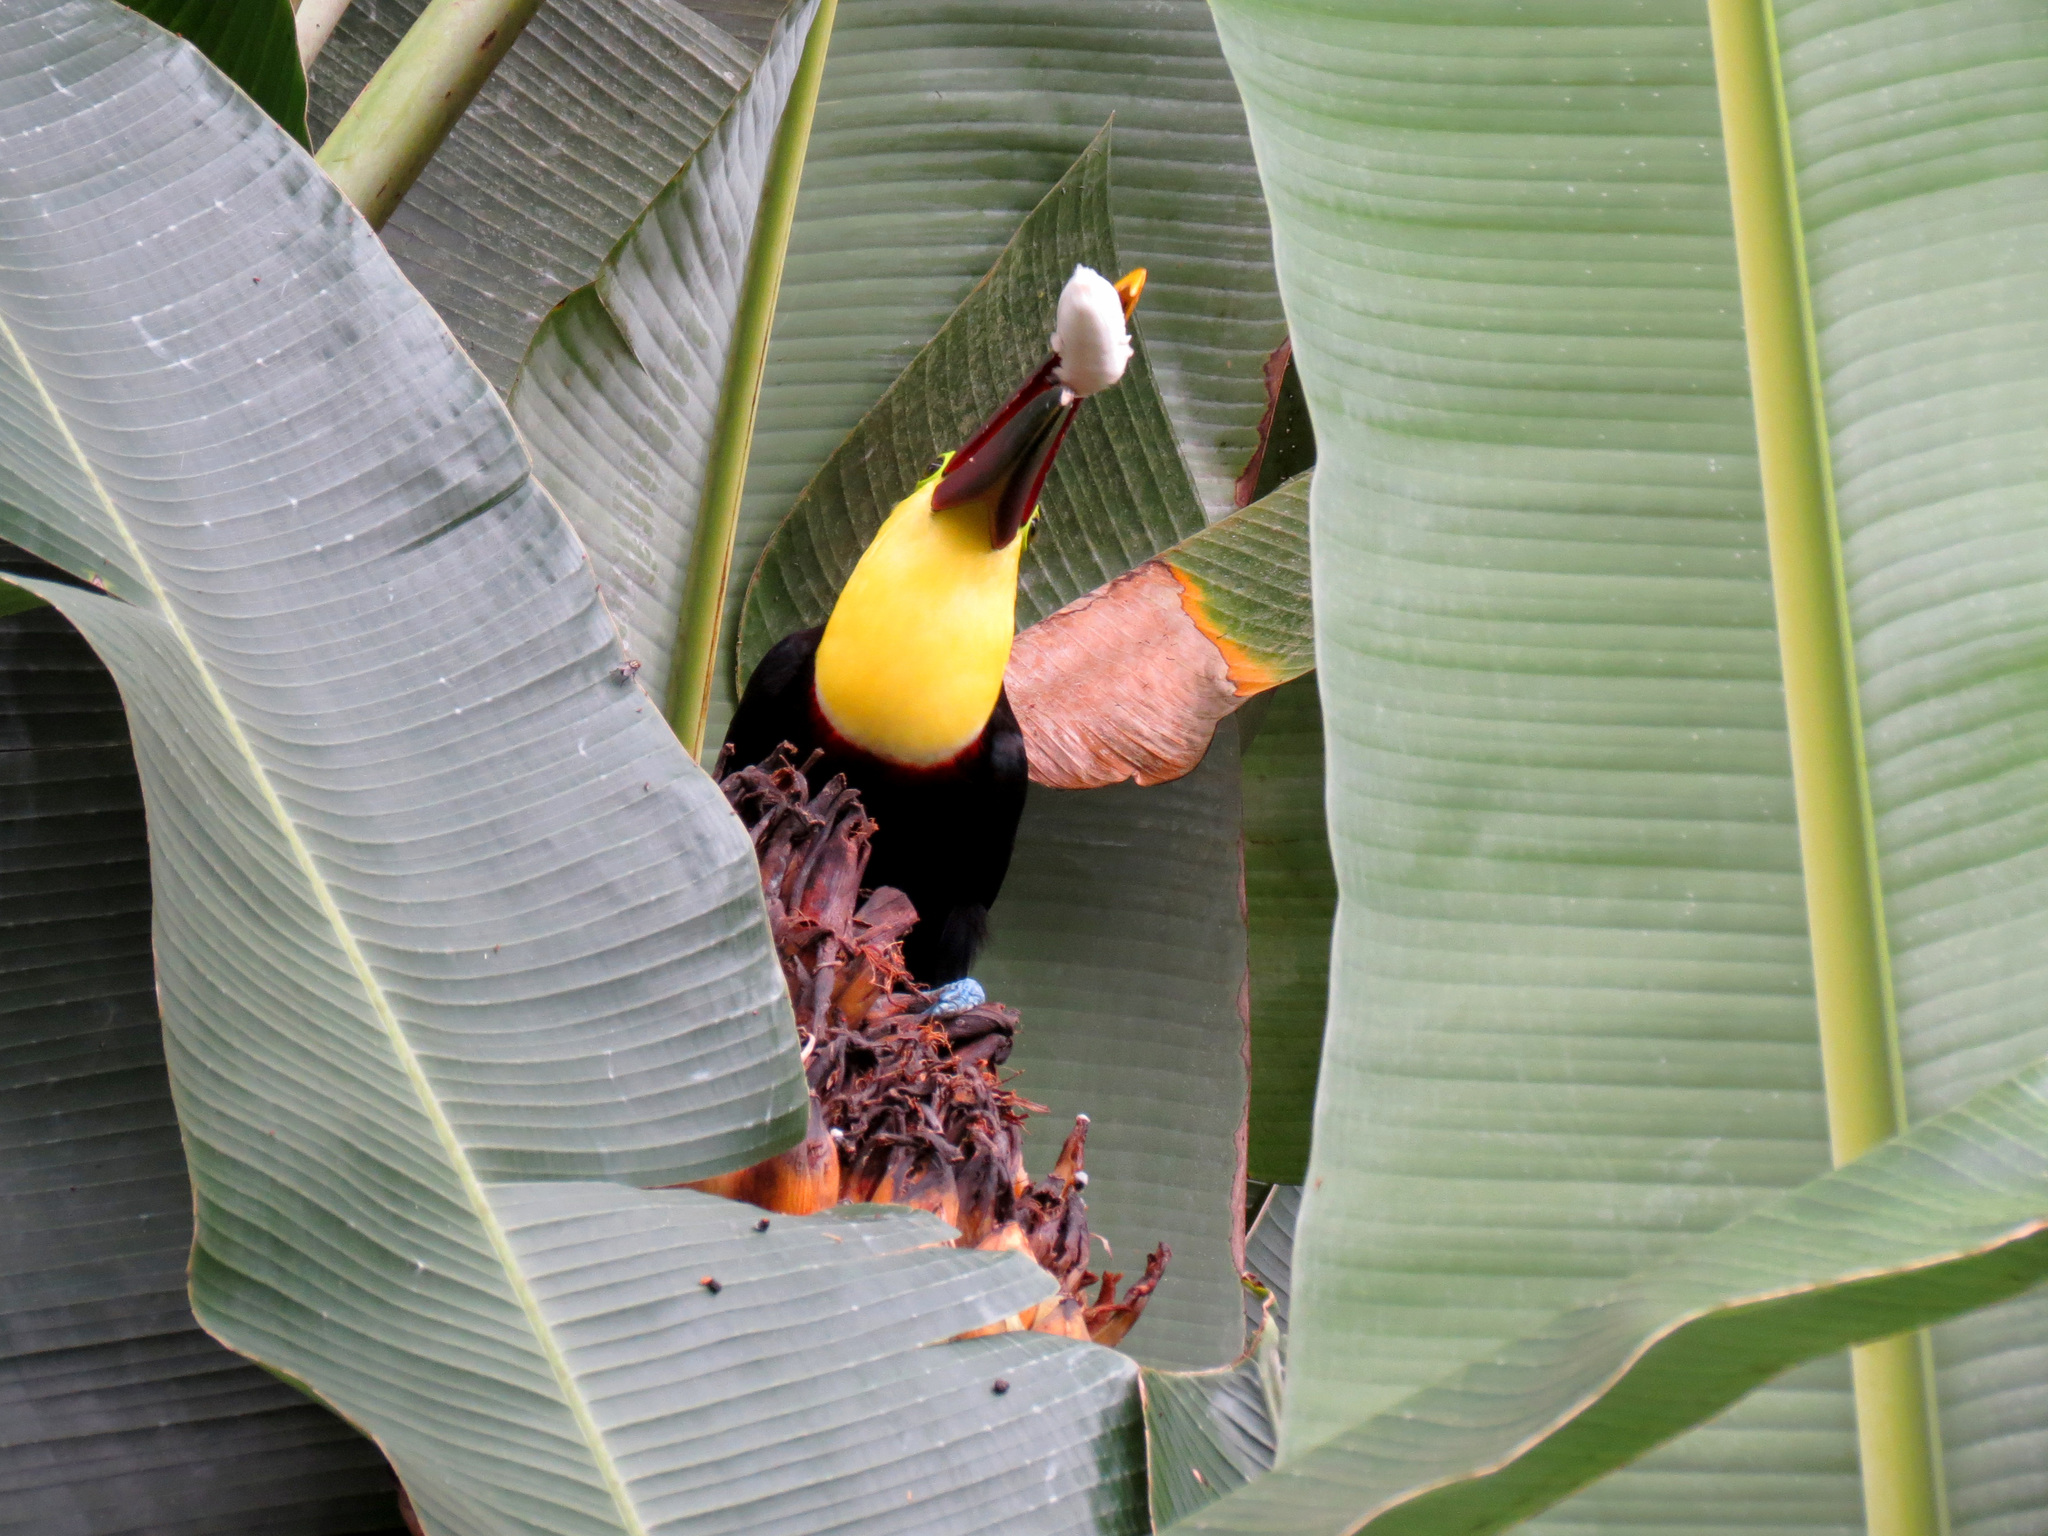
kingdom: Animalia
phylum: Chordata
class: Aves
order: Piciformes
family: Ramphastidae
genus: Ramphastos
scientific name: Ramphastos ambiguus
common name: Yellow-throated toucan
